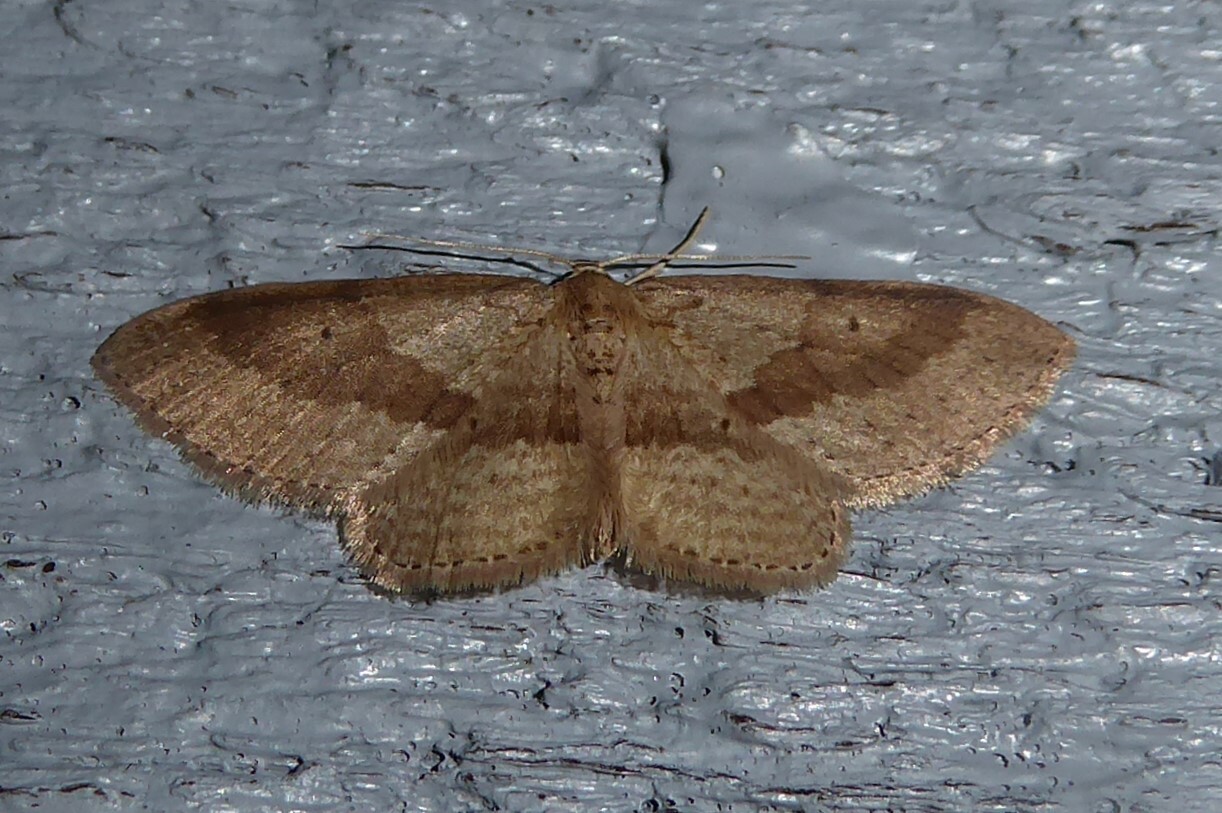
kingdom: Animalia
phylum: Arthropoda
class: Insecta
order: Lepidoptera
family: Geometridae
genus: Poecilasthena
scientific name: Poecilasthena schistaria
